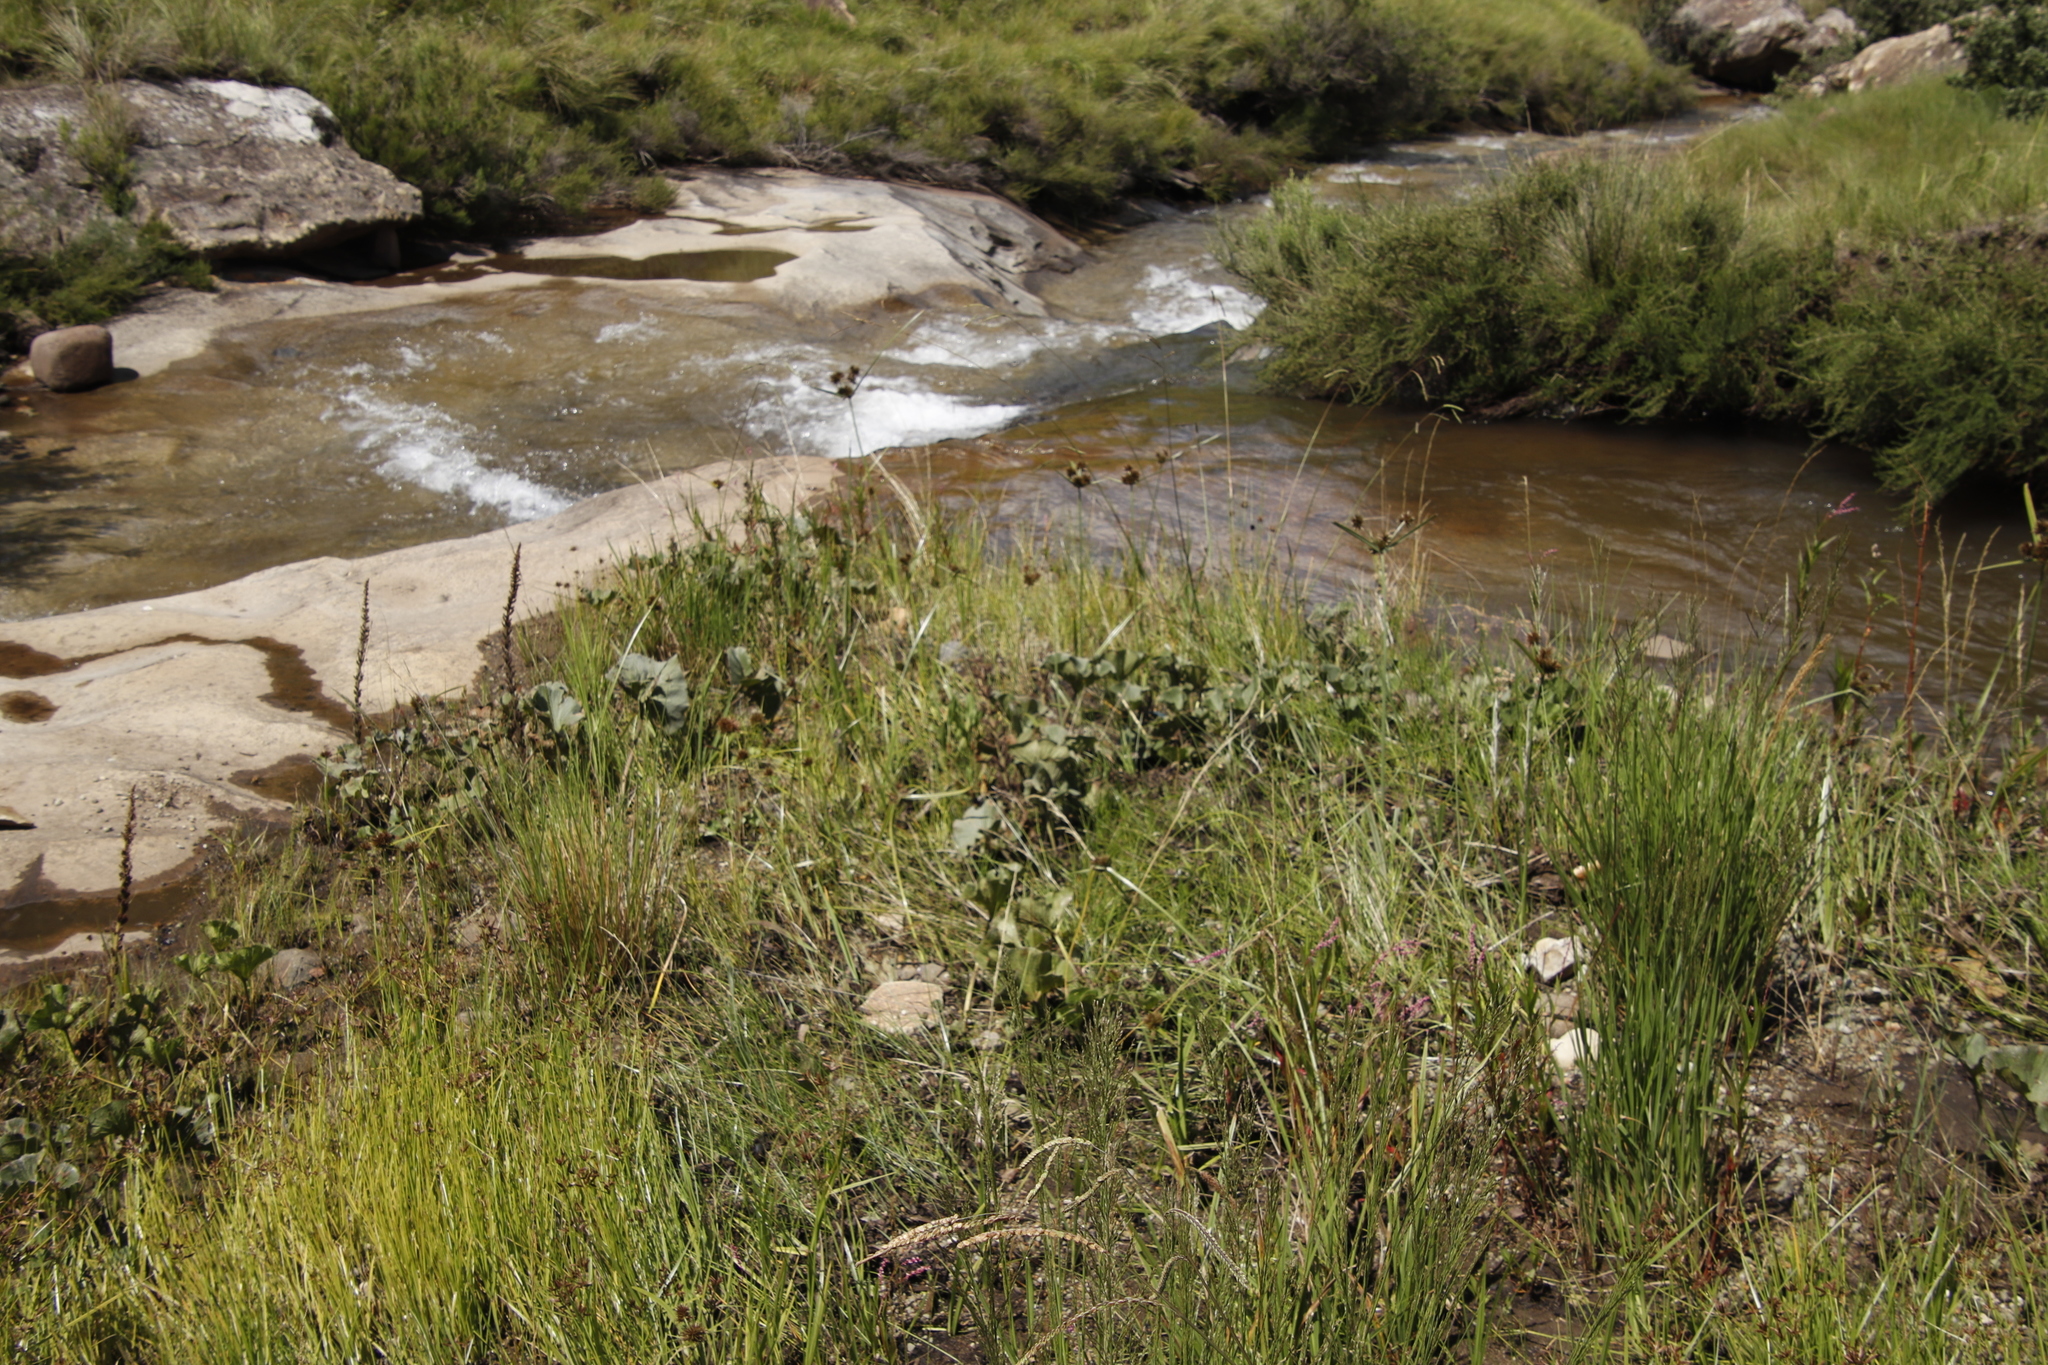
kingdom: Plantae
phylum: Tracheophyta
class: Liliopsida
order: Poales
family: Cyperaceae
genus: Cyperus
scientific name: Cyperus congestus
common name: Dense flat sedge
